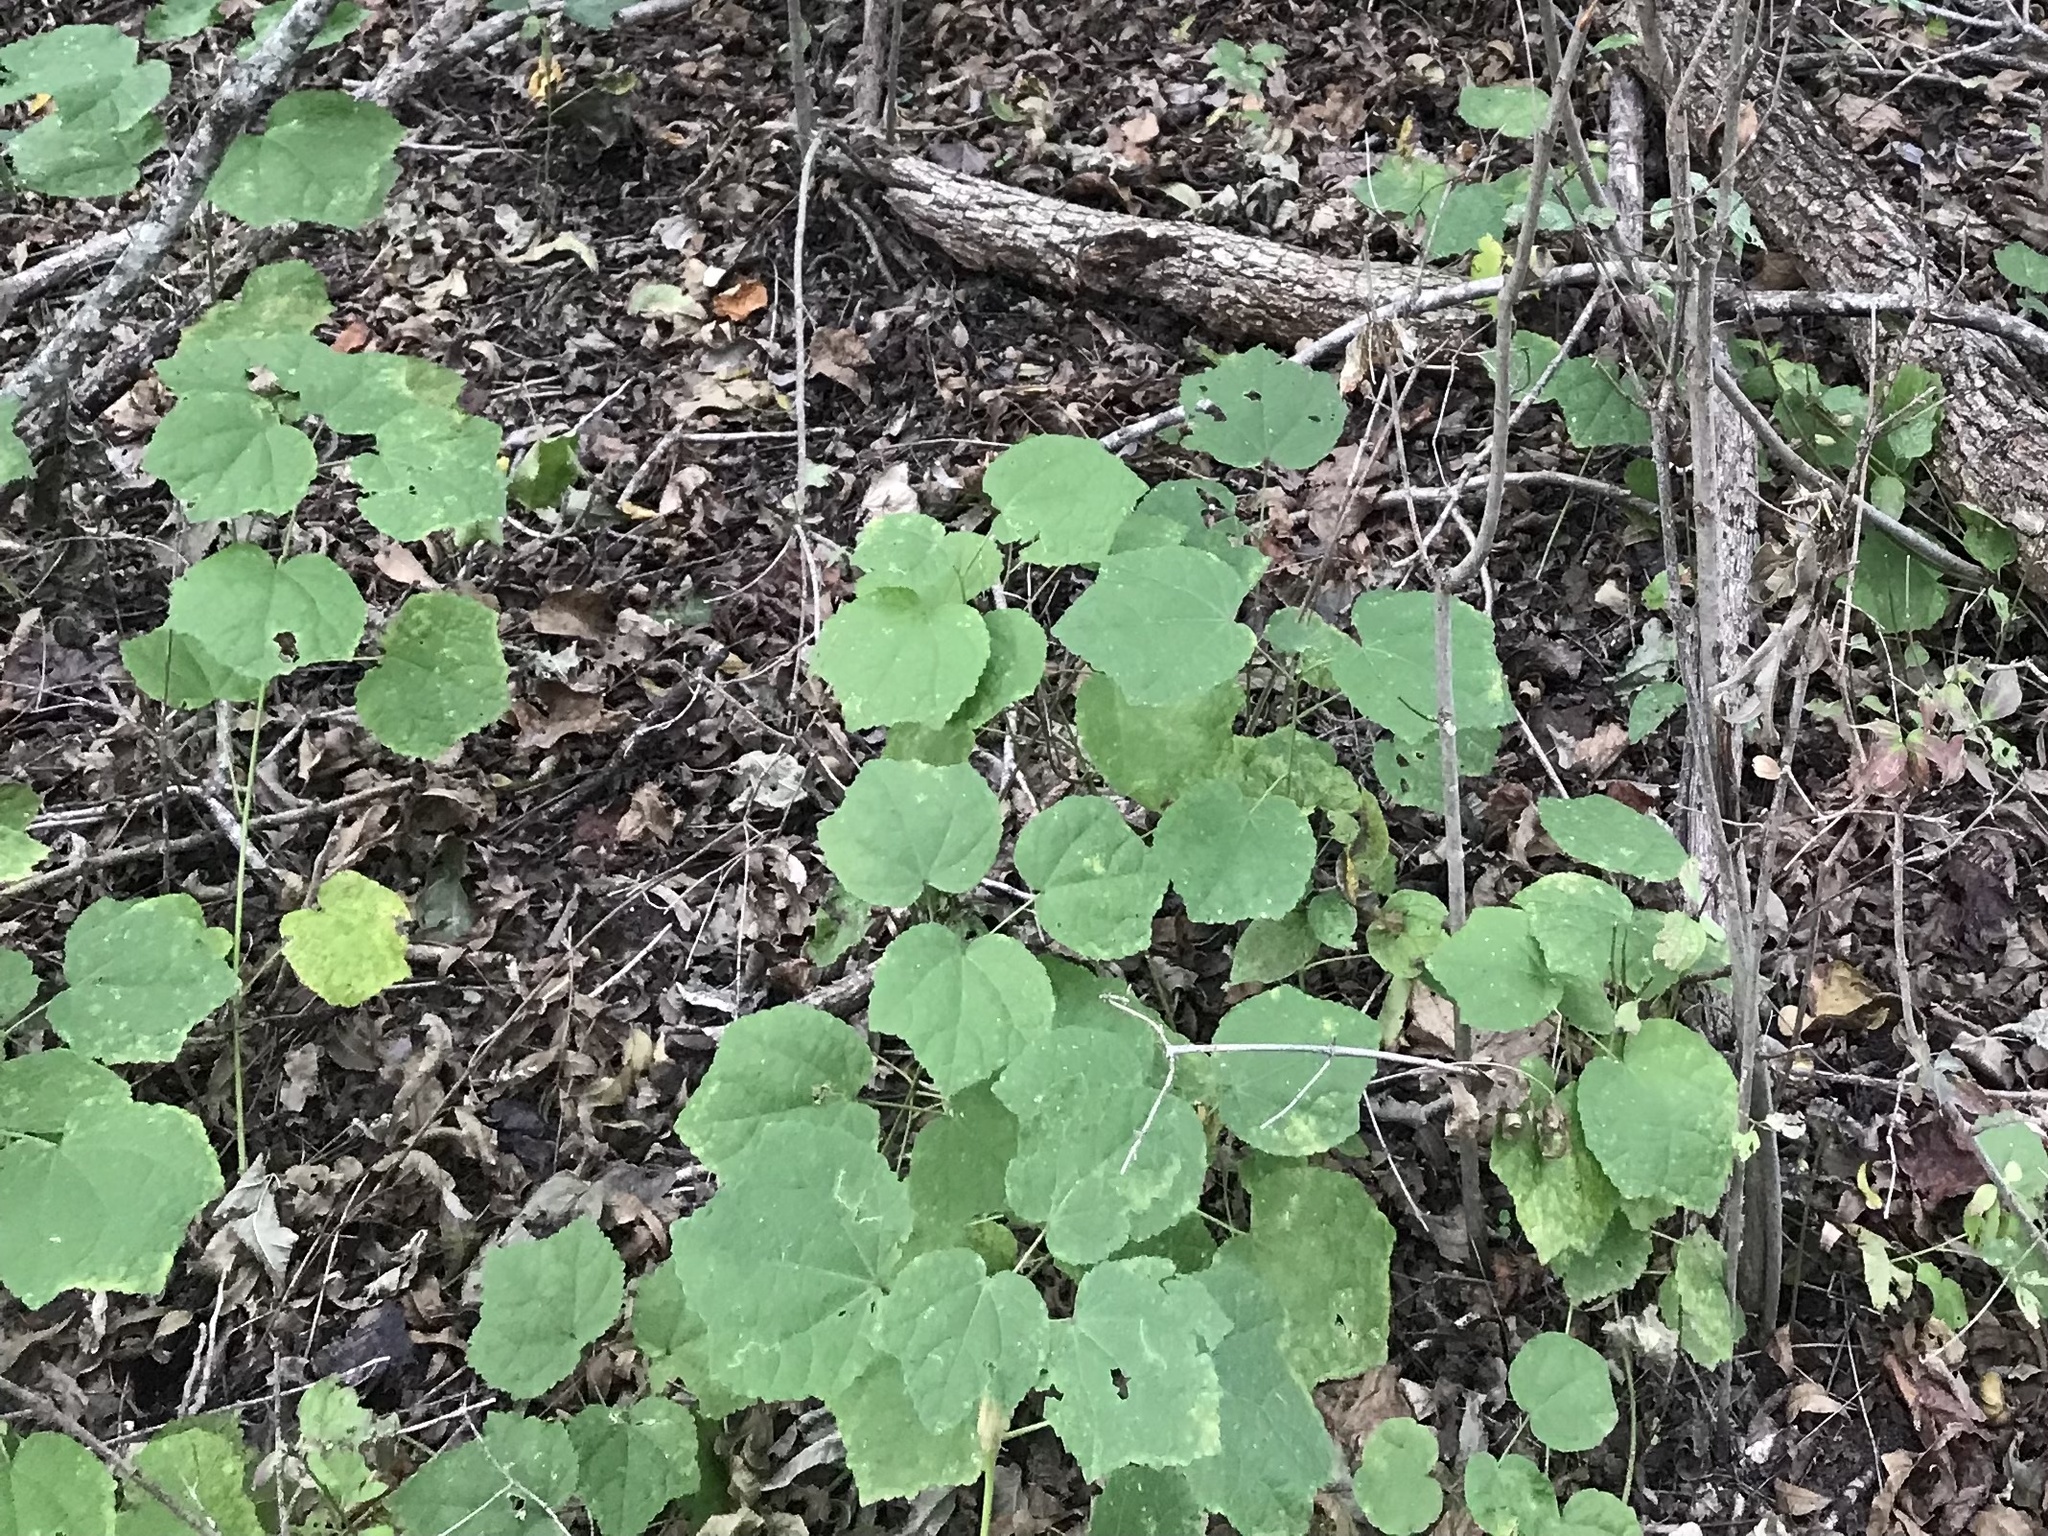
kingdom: Plantae
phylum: Tracheophyta
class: Magnoliopsida
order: Malvales
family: Malvaceae
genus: Malvaviscus
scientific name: Malvaviscus arboreus
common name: Wax mallow
